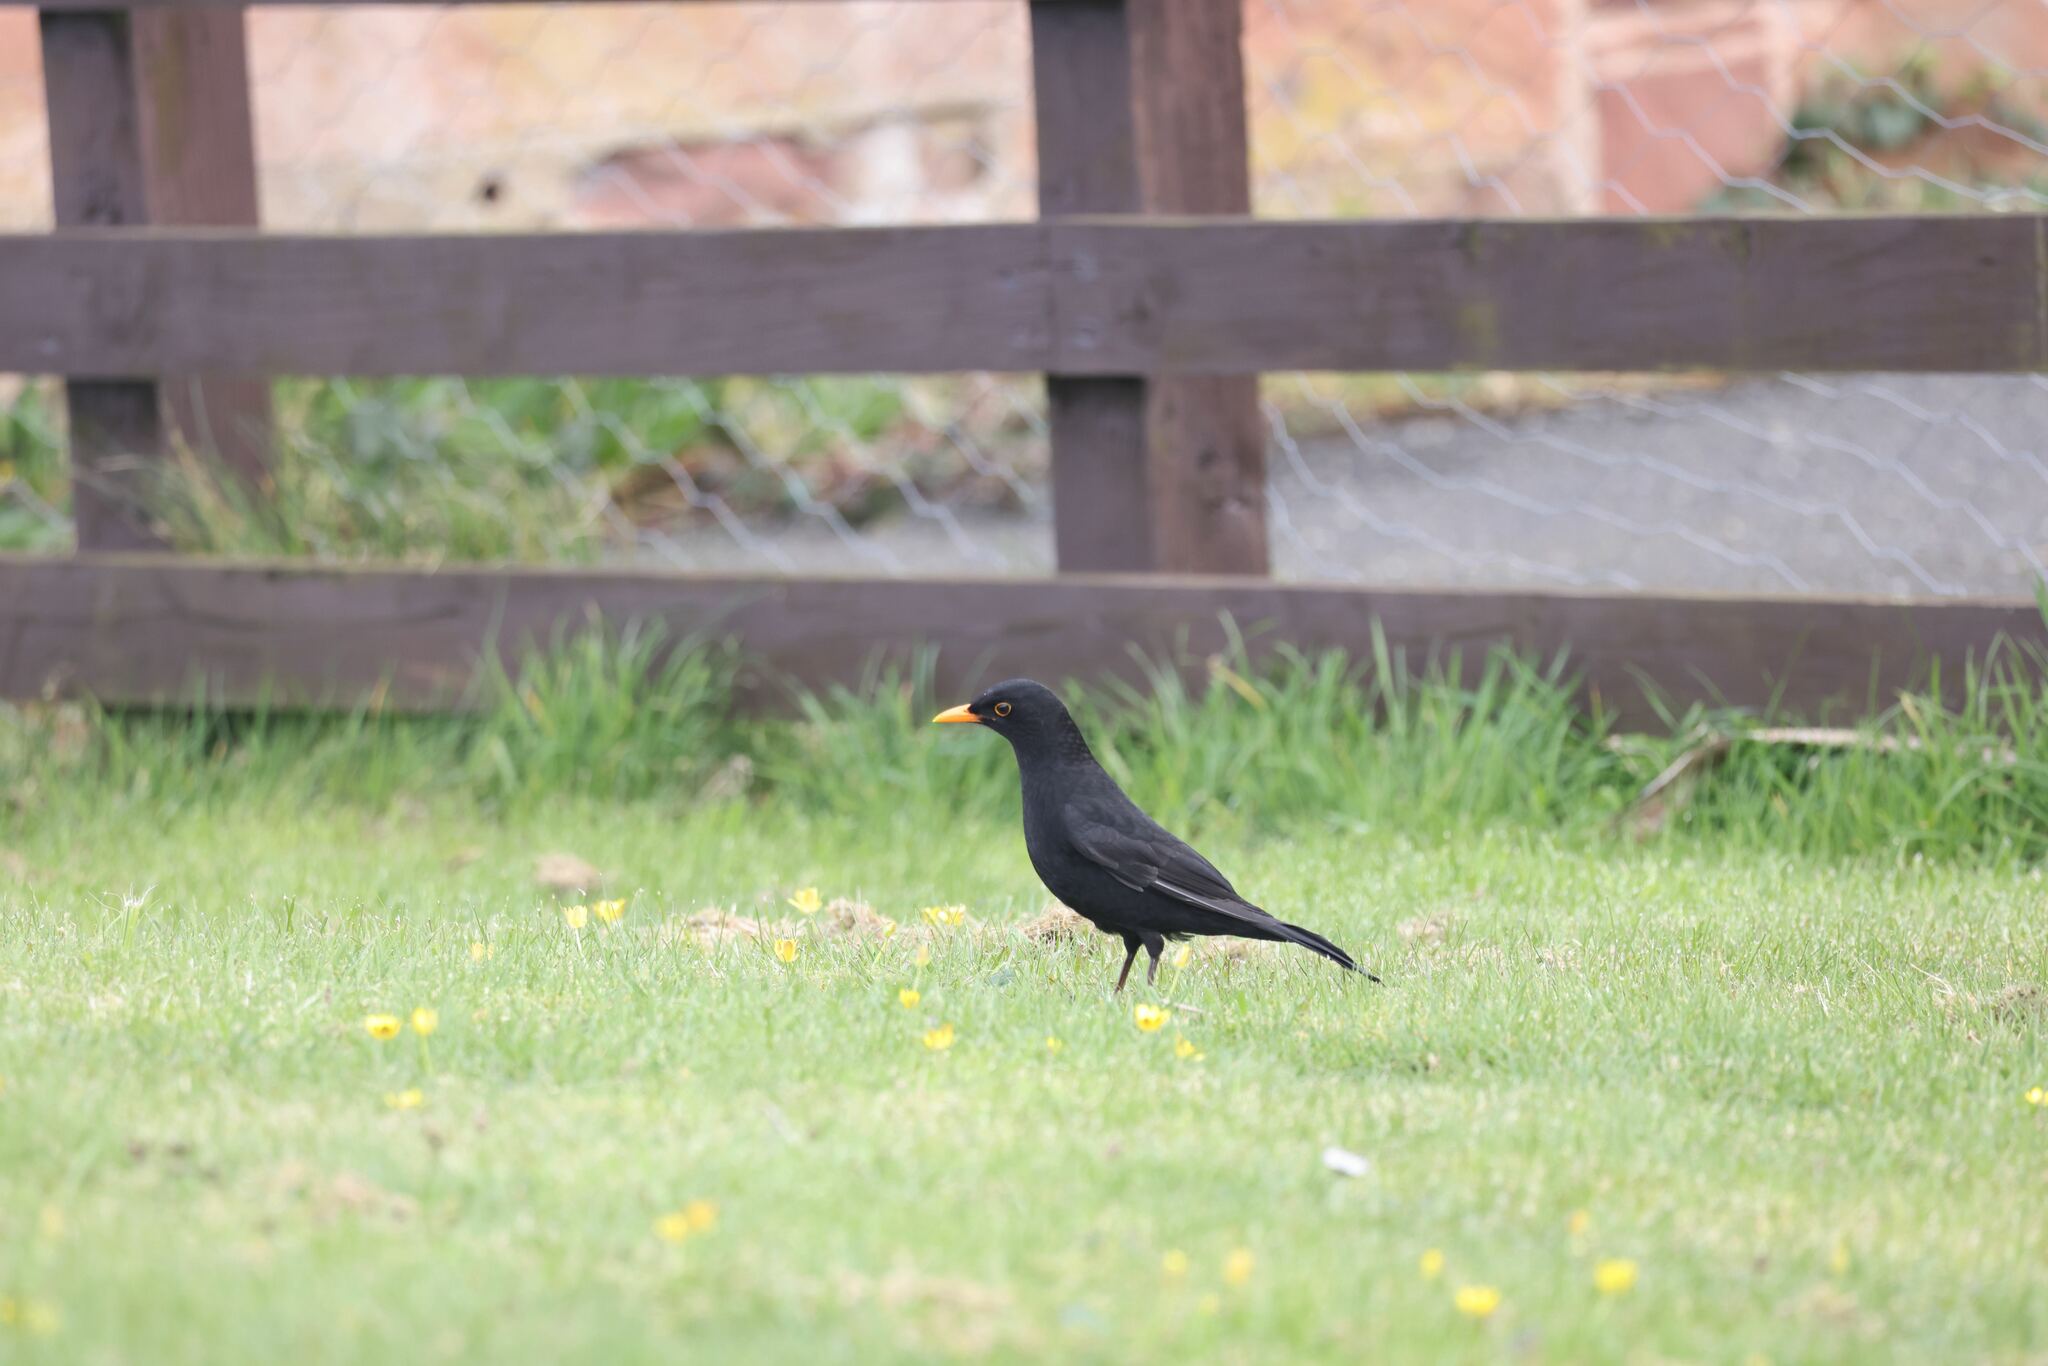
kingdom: Animalia
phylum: Chordata
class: Aves
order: Passeriformes
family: Turdidae
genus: Turdus
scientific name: Turdus merula
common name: Common blackbird
